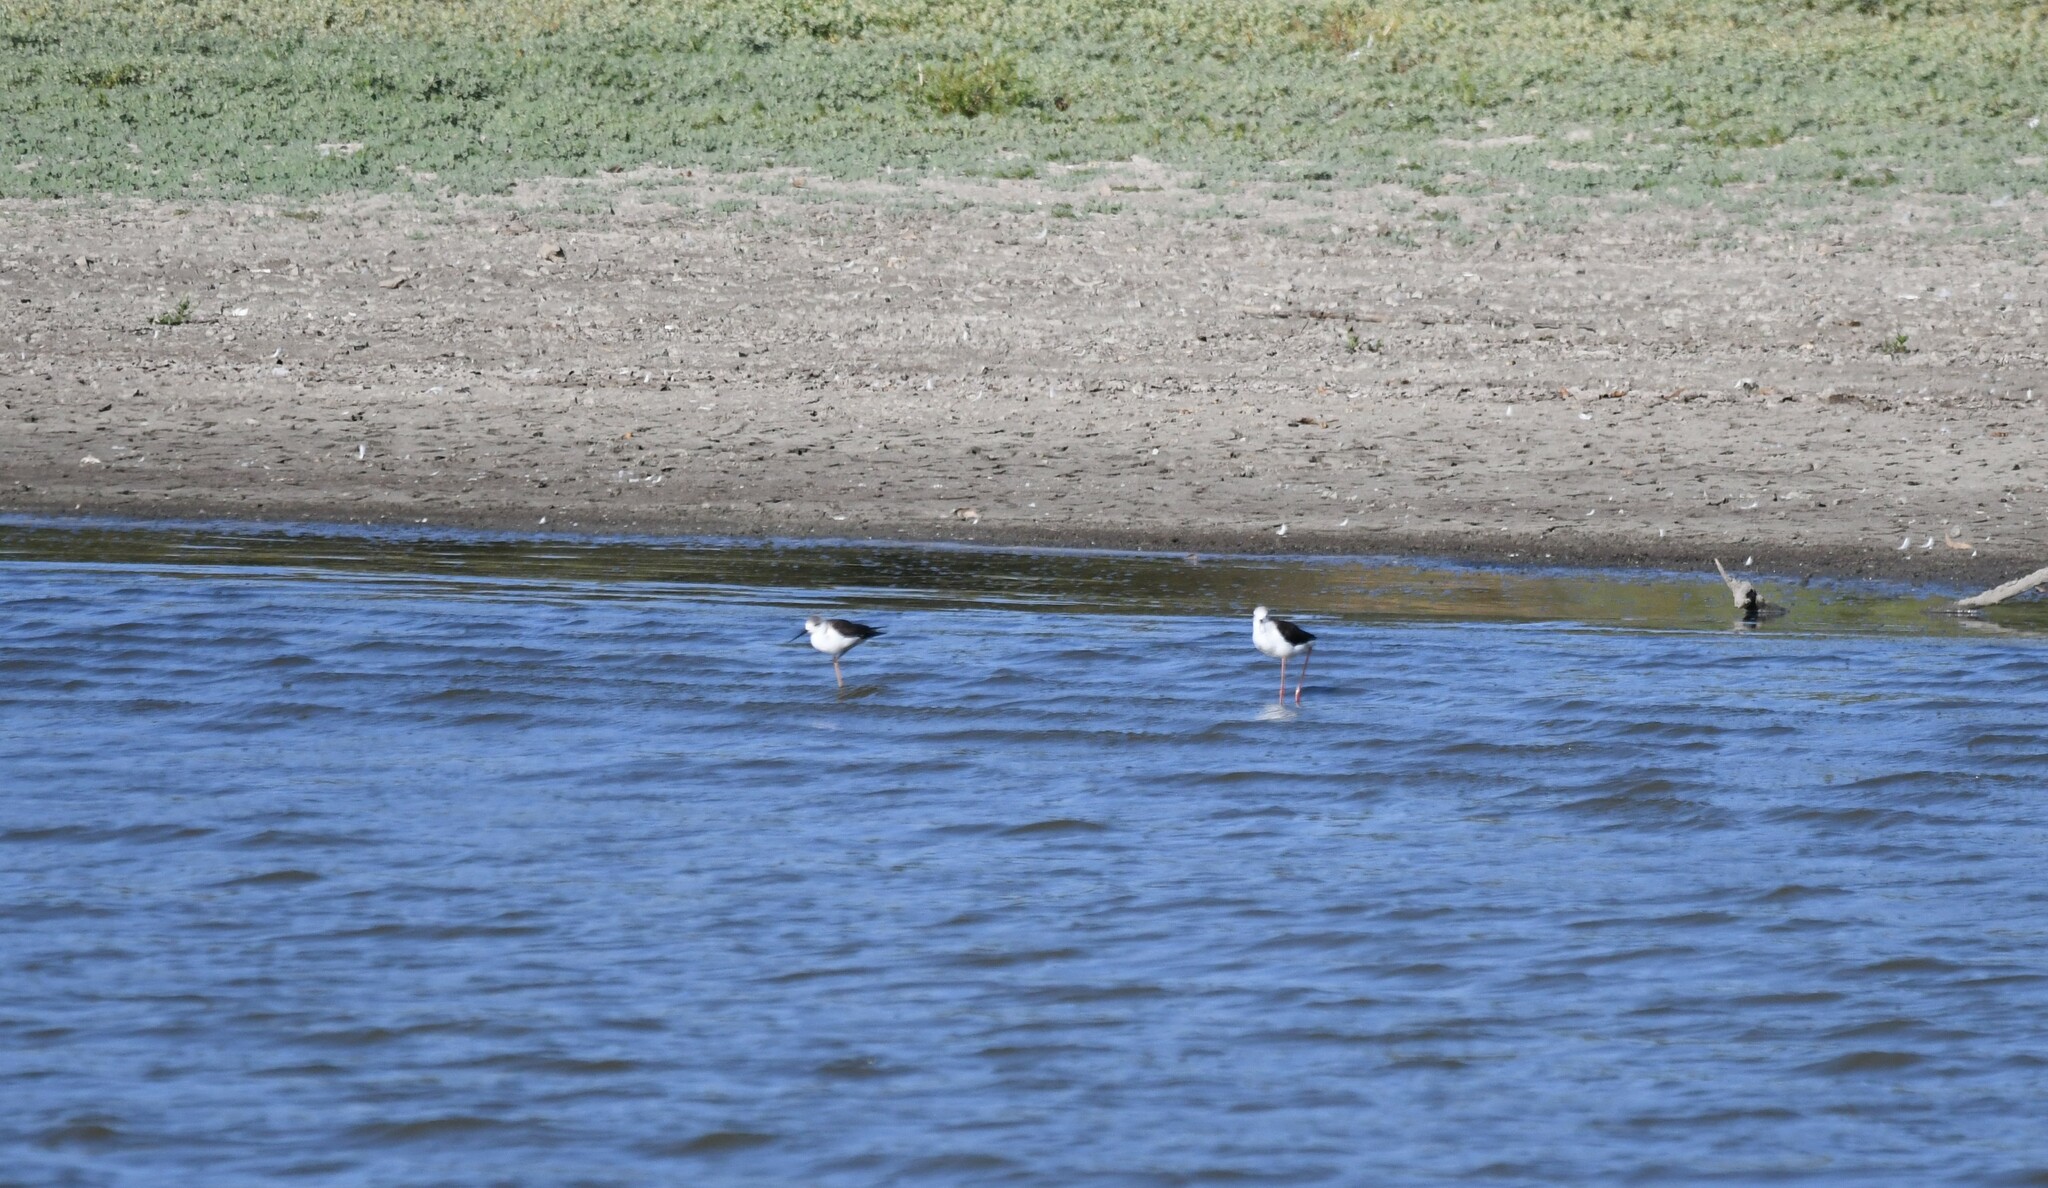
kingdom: Animalia
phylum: Chordata
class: Aves
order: Charadriiformes
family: Recurvirostridae
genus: Himantopus
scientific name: Himantopus himantopus
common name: Black-winged stilt
